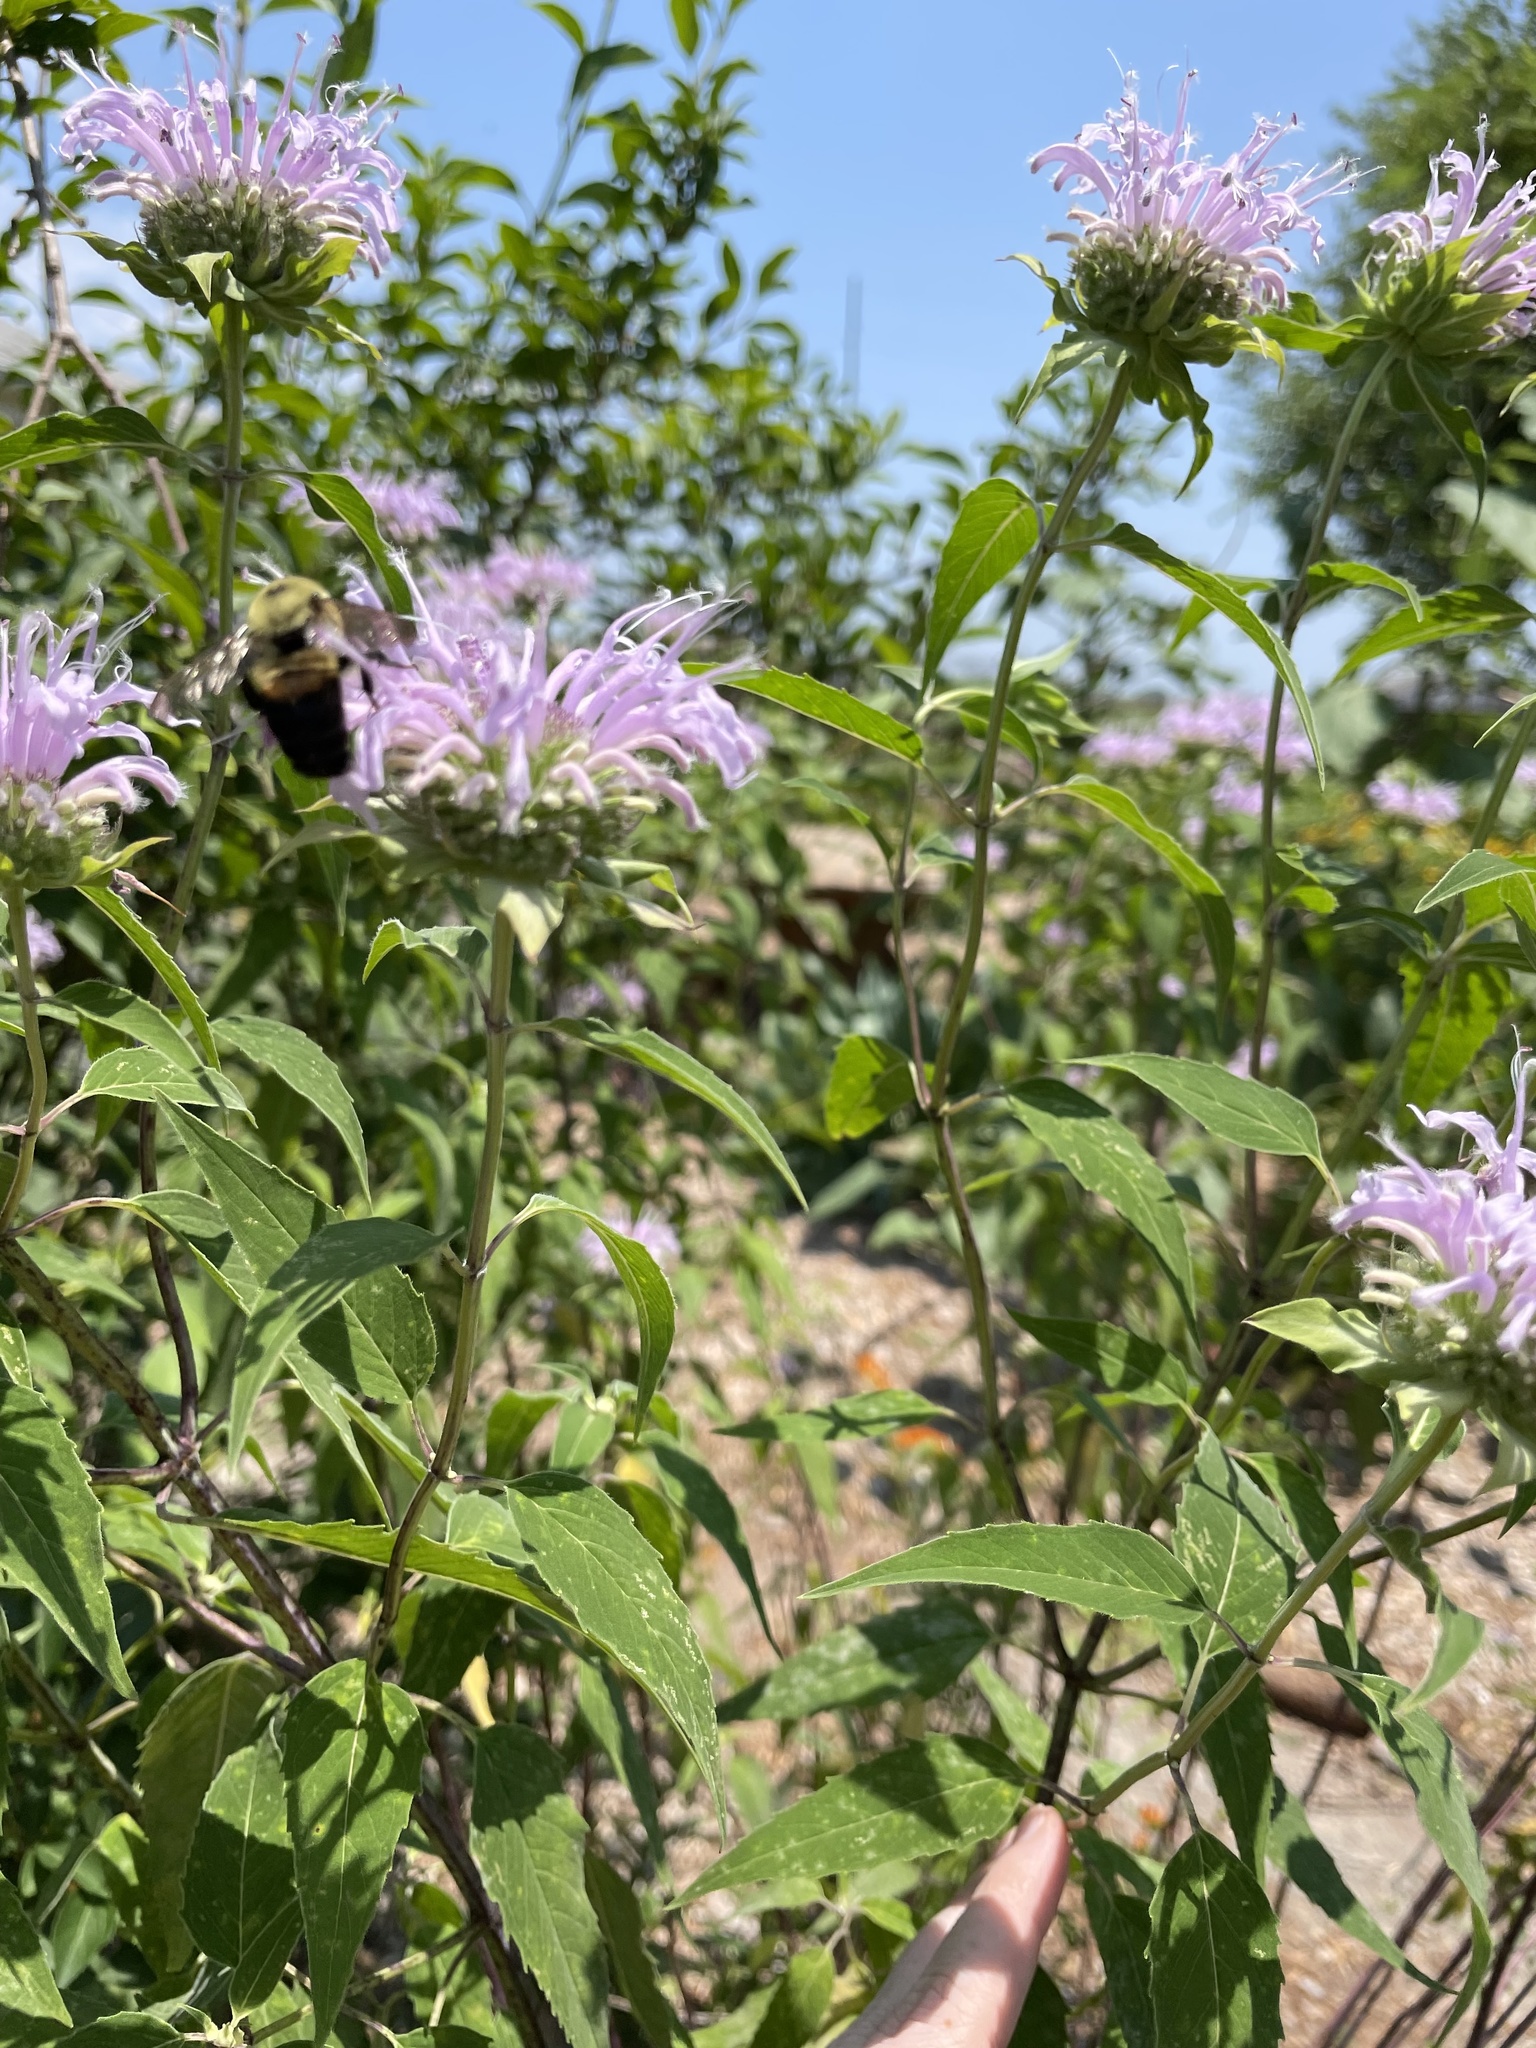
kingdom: Animalia
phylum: Arthropoda
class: Insecta
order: Hymenoptera
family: Apidae
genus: Bombus
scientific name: Bombus griseocollis
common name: Brown-belted bumble bee
